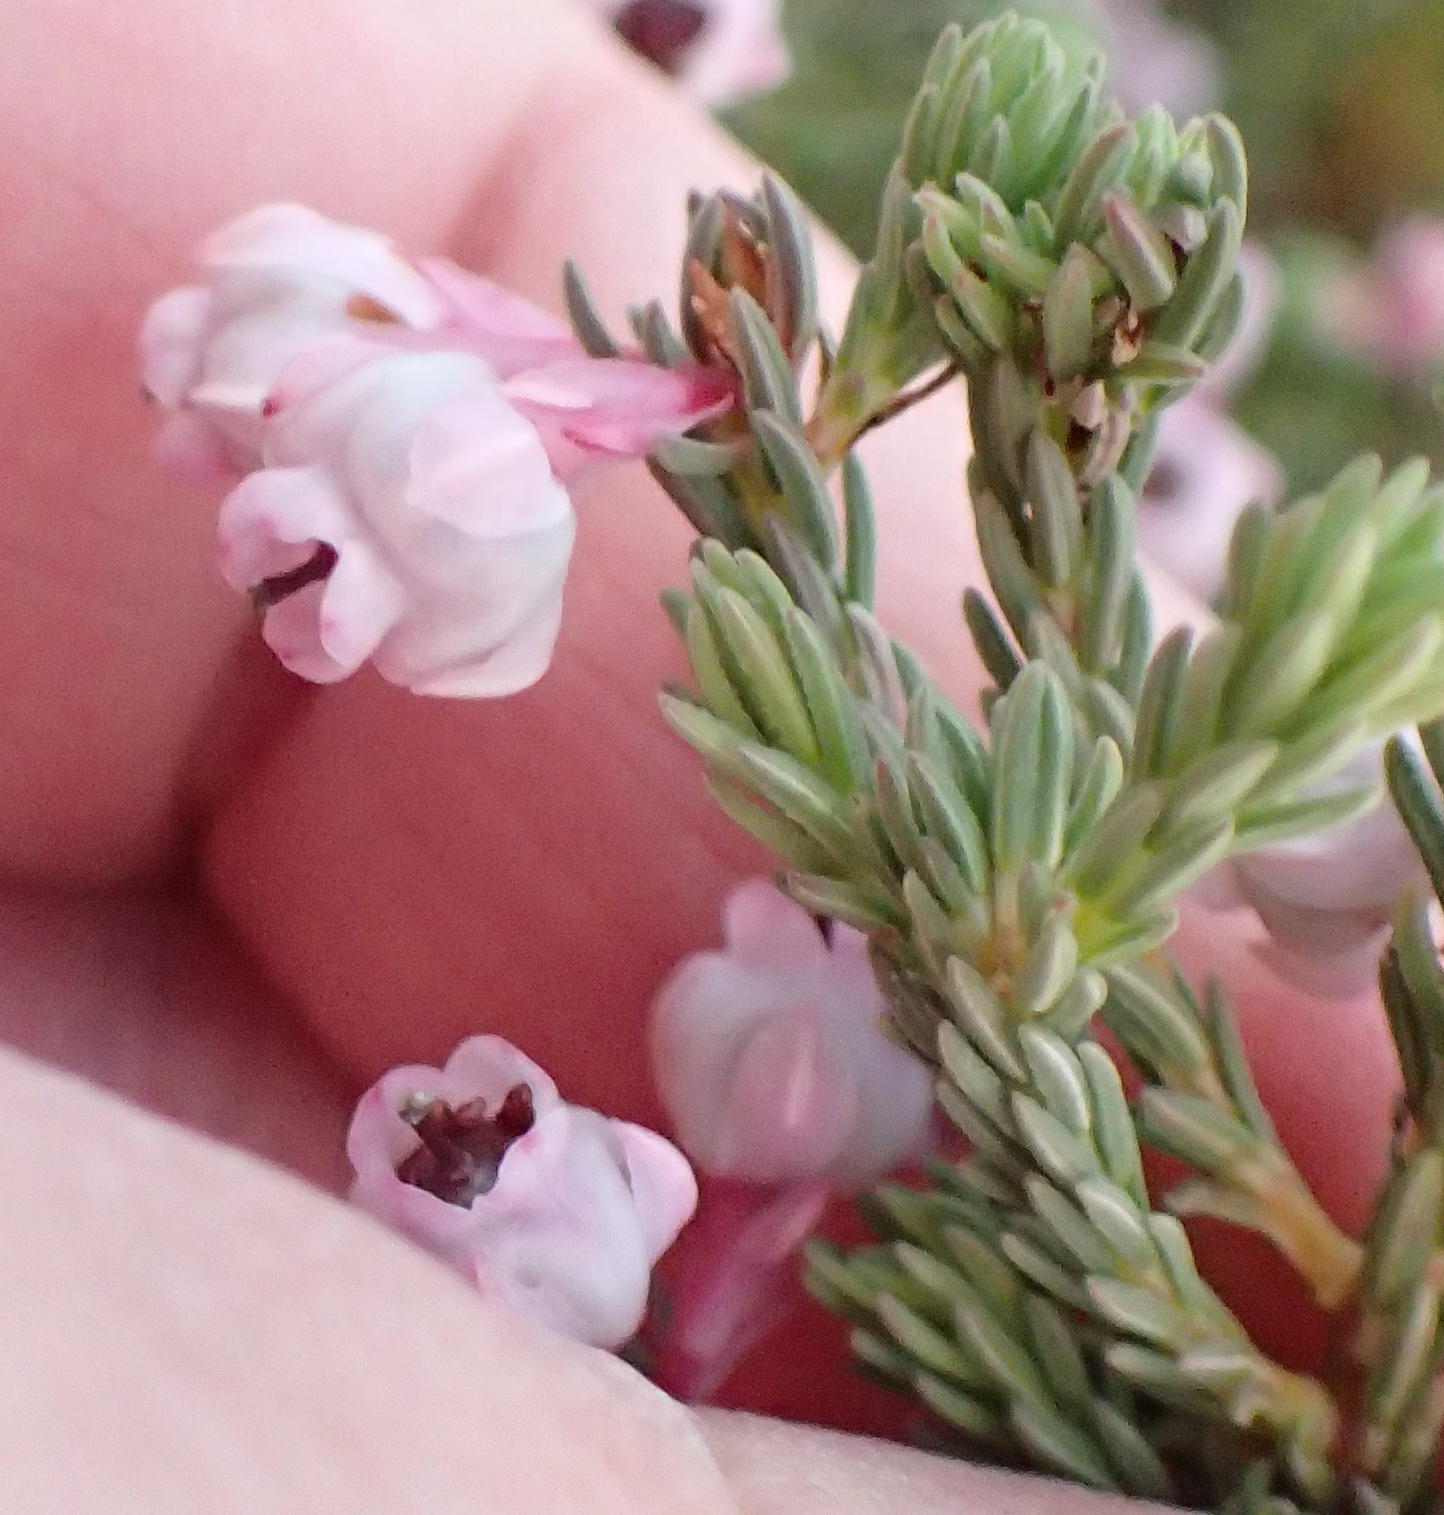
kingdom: Plantae
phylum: Tracheophyta
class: Magnoliopsida
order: Ericales
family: Ericaceae
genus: Erica
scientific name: Erica baccans
